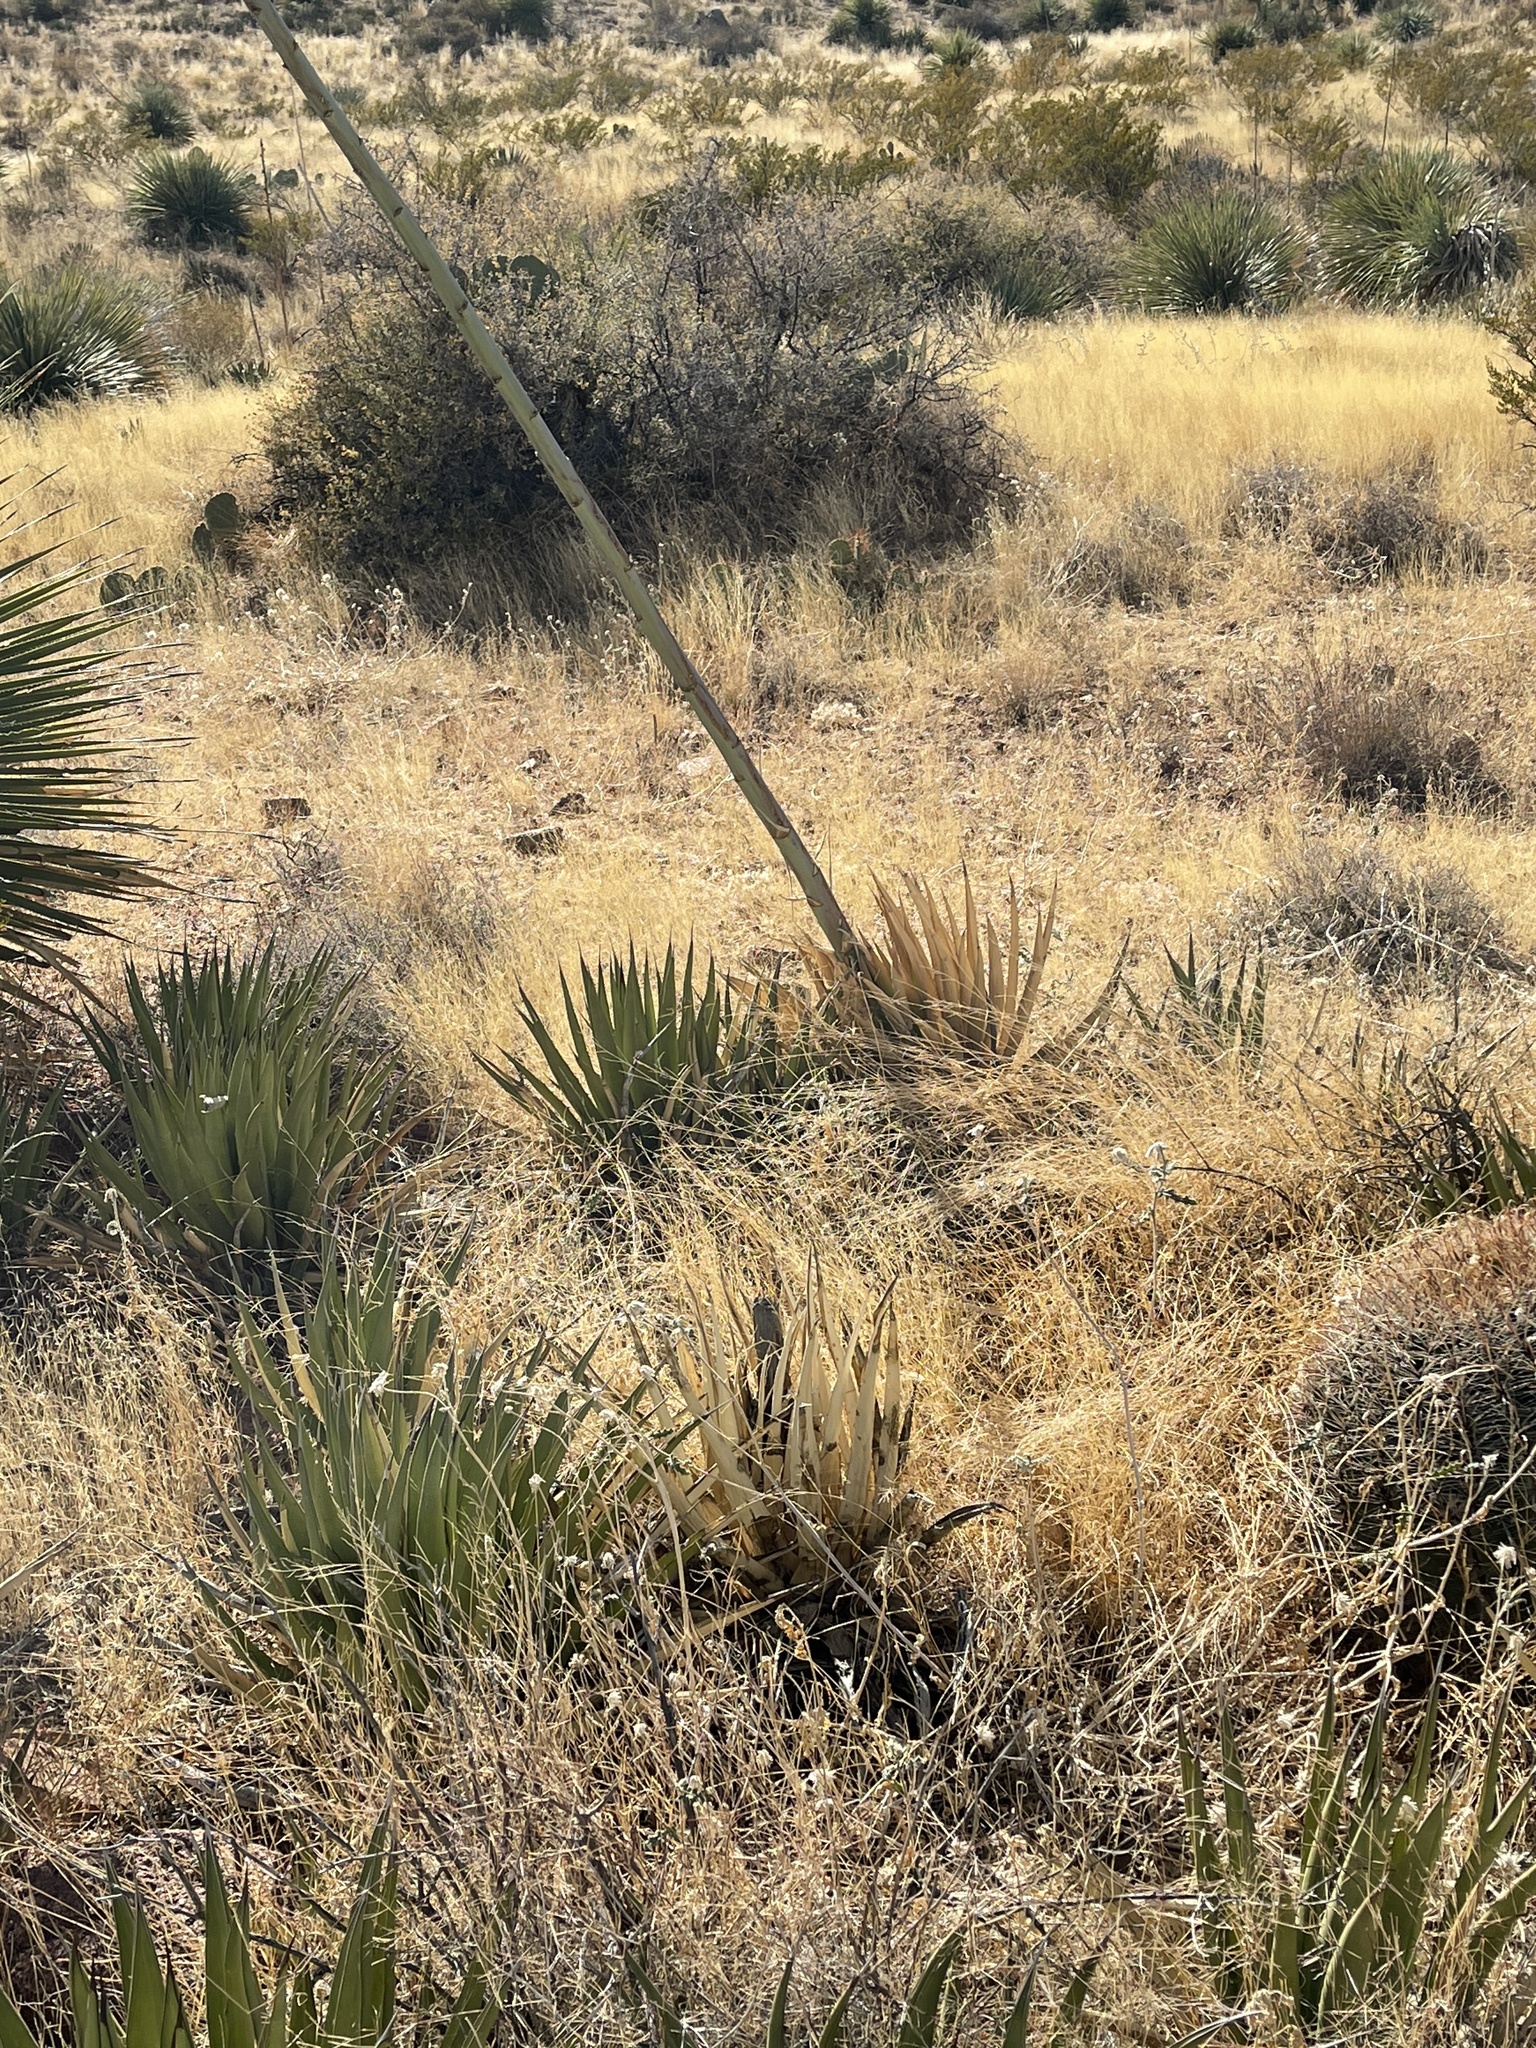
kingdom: Plantae
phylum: Tracheophyta
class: Liliopsida
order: Asparagales
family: Asparagaceae
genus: Agave
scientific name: Agave lechuguilla
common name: Lecheguilla agave
